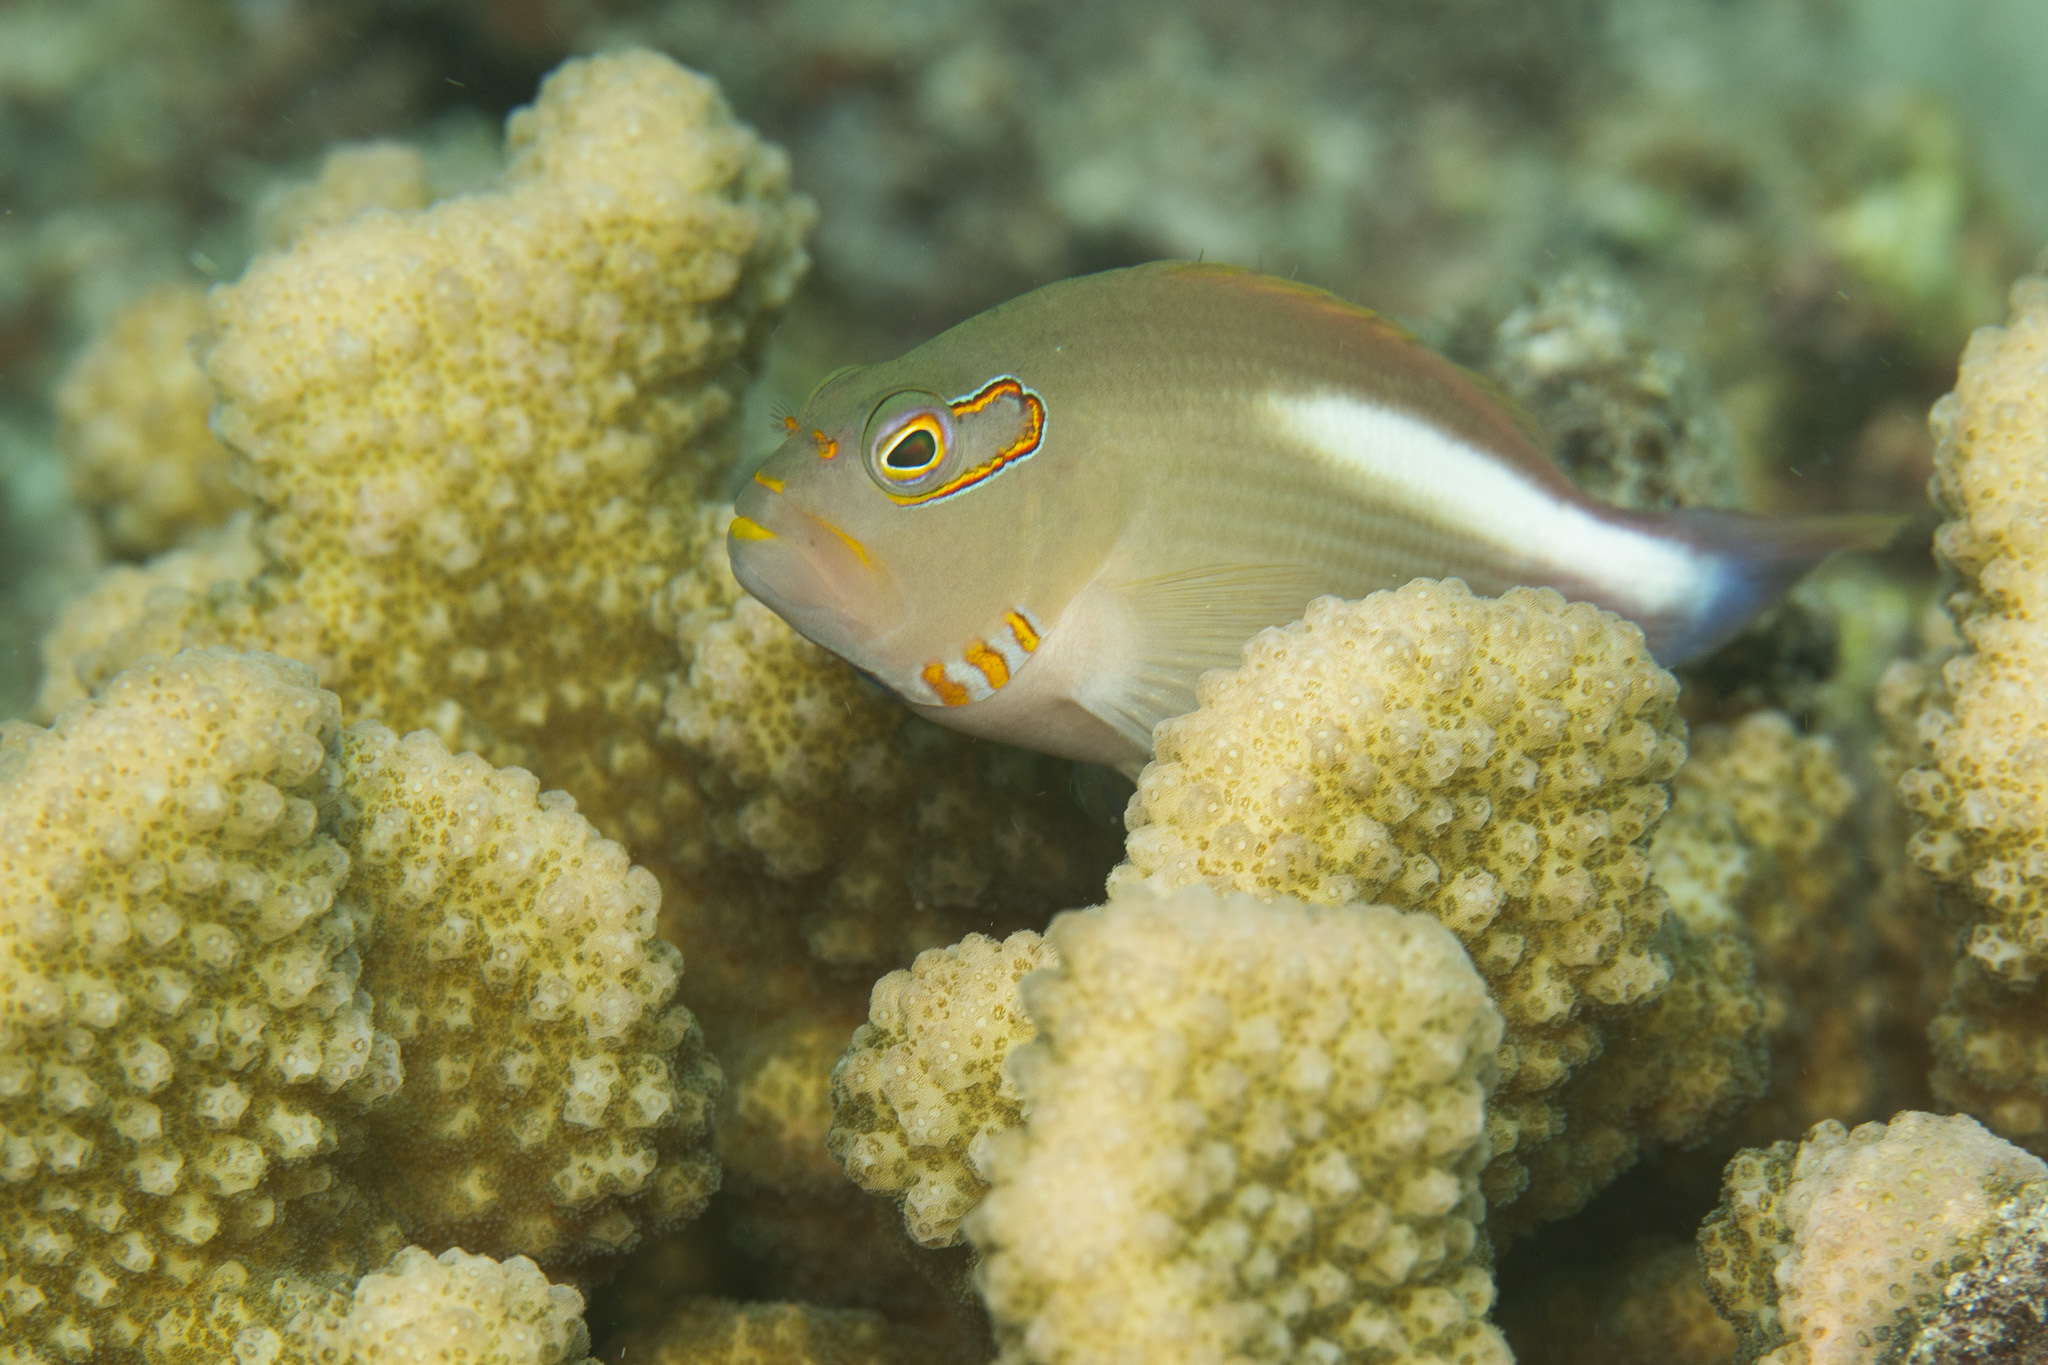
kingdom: Animalia
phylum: Chordata
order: Perciformes
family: Cirrhitidae
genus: Paracirrhites
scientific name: Paracirrhites arcatus
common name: Arc-eye hawkfish
